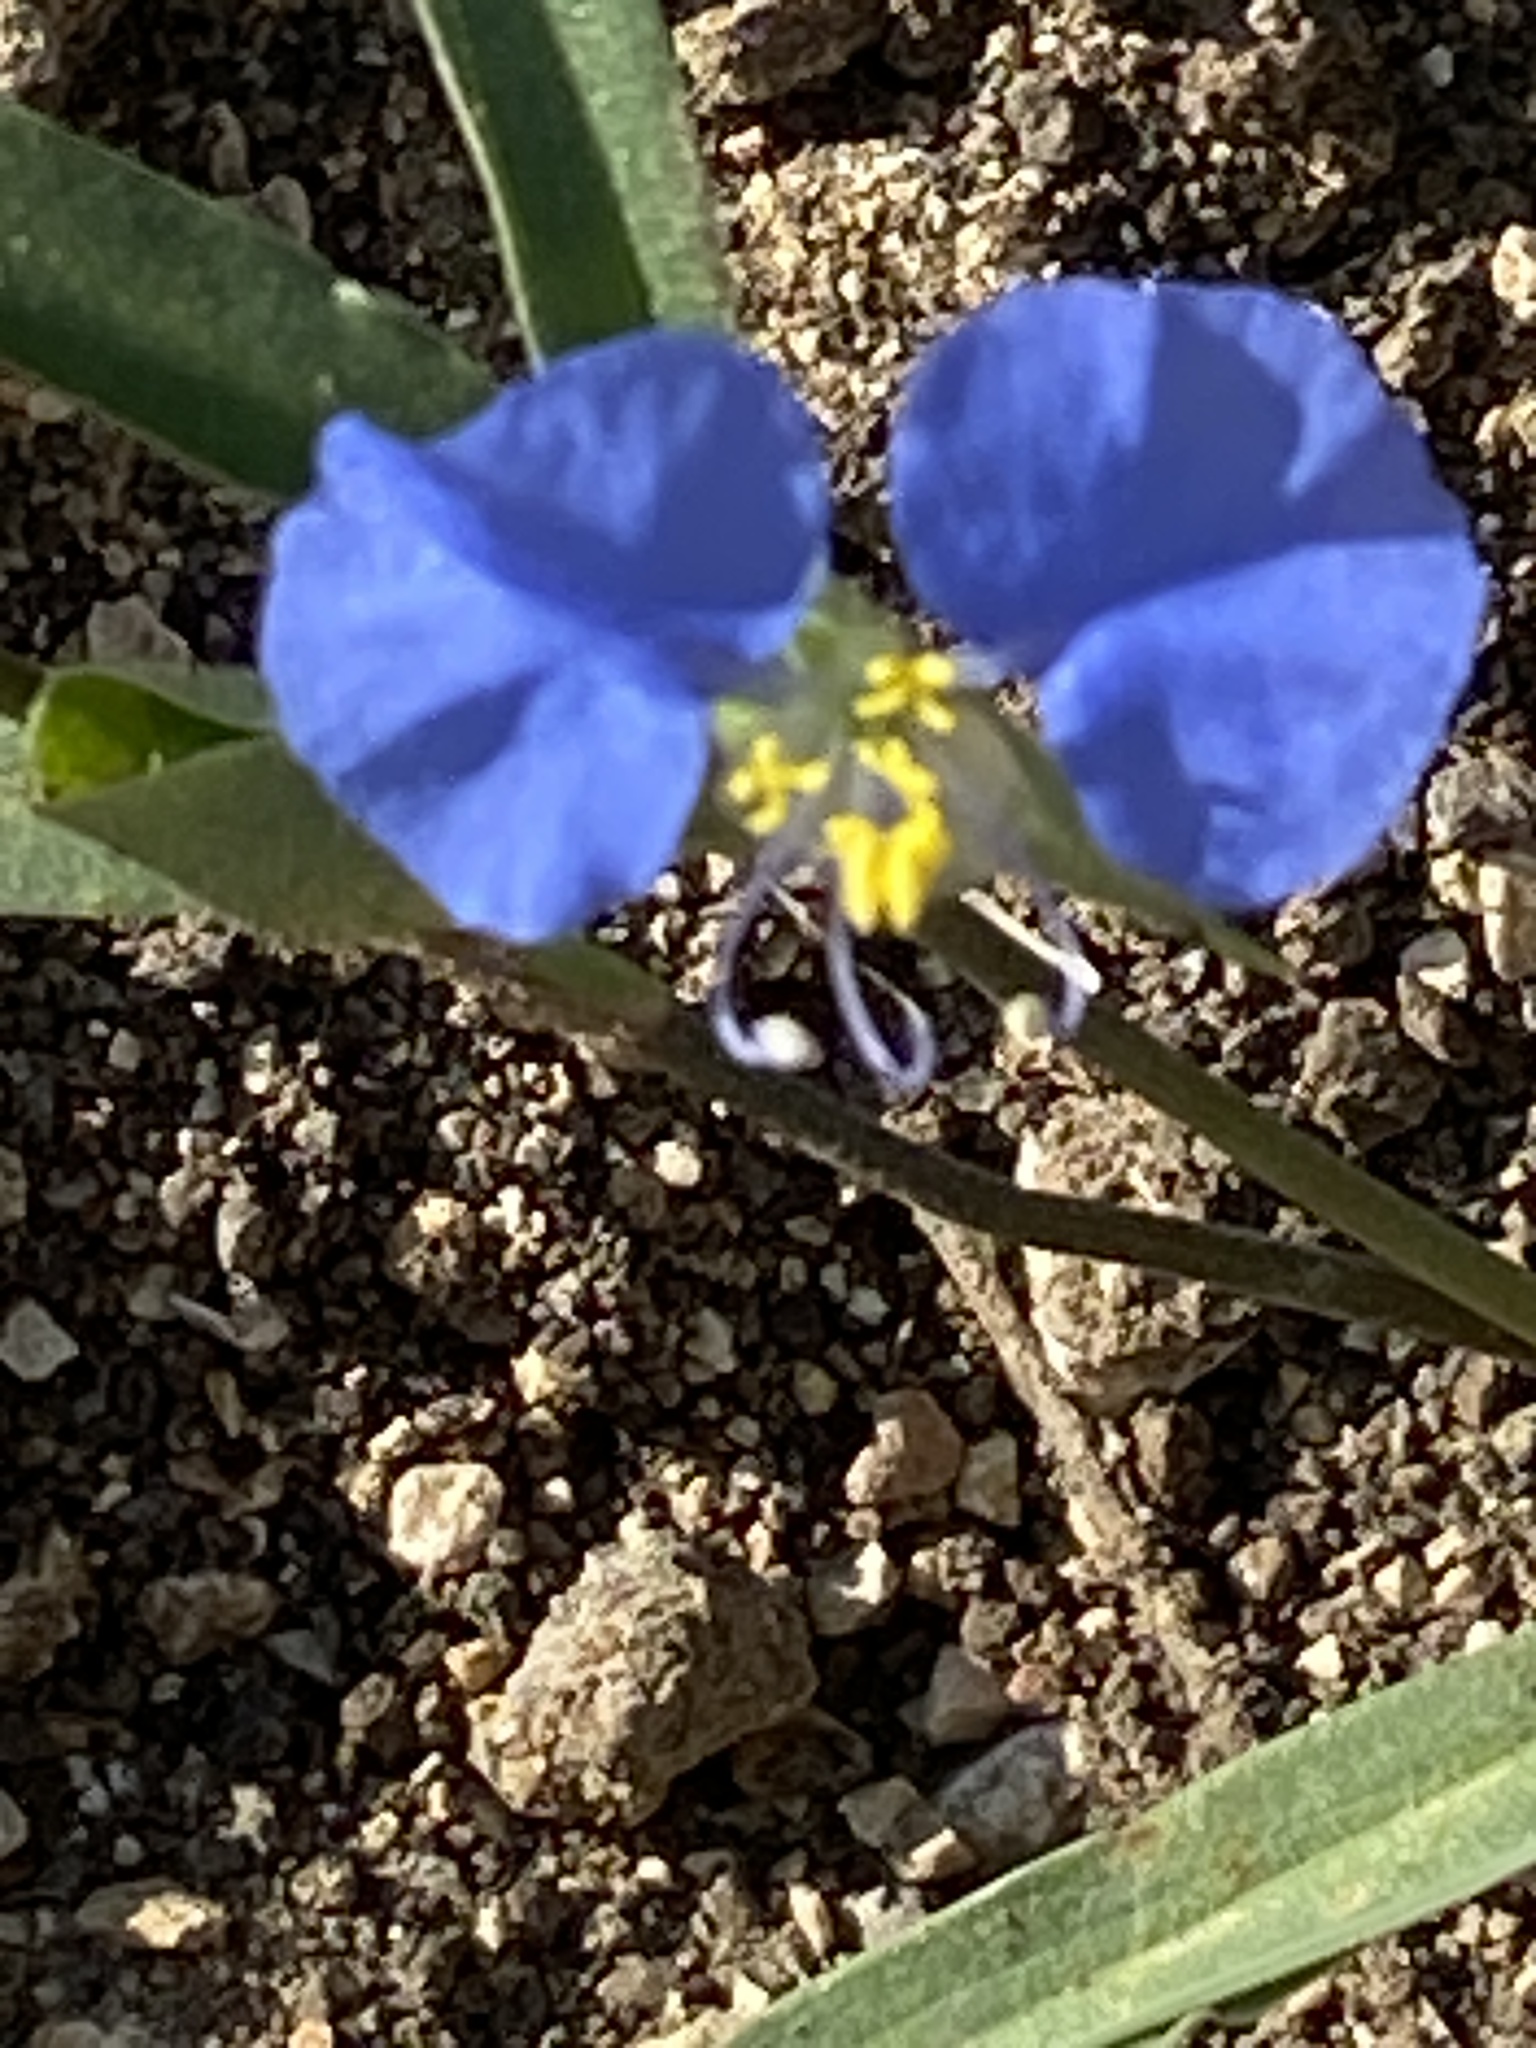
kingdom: Plantae
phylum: Tracheophyta
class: Liliopsida
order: Commelinales
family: Commelinaceae
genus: Commelina
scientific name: Commelina erecta
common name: Blousel blommetjie
